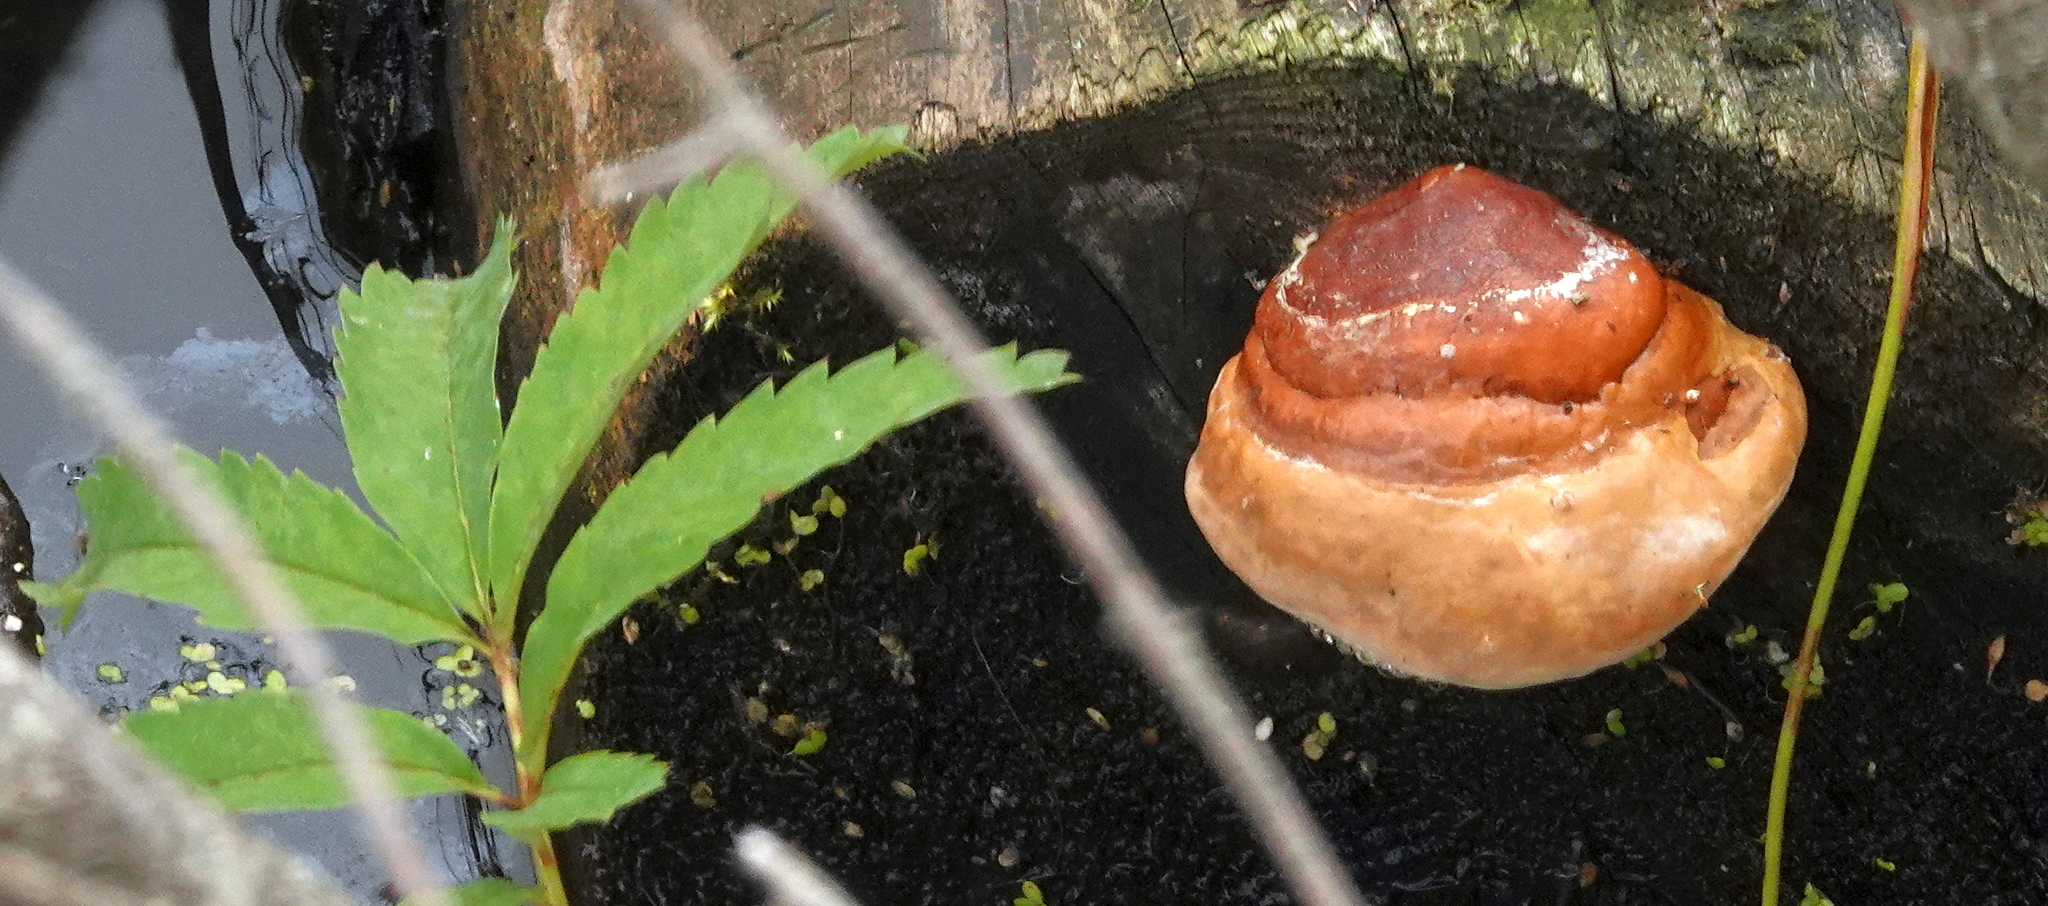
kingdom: Fungi
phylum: Basidiomycota
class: Agaricomycetes
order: Polyporales
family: Fomitopsidaceae
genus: Fomitopsis
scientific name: Fomitopsis mounceae
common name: Northern red belt
